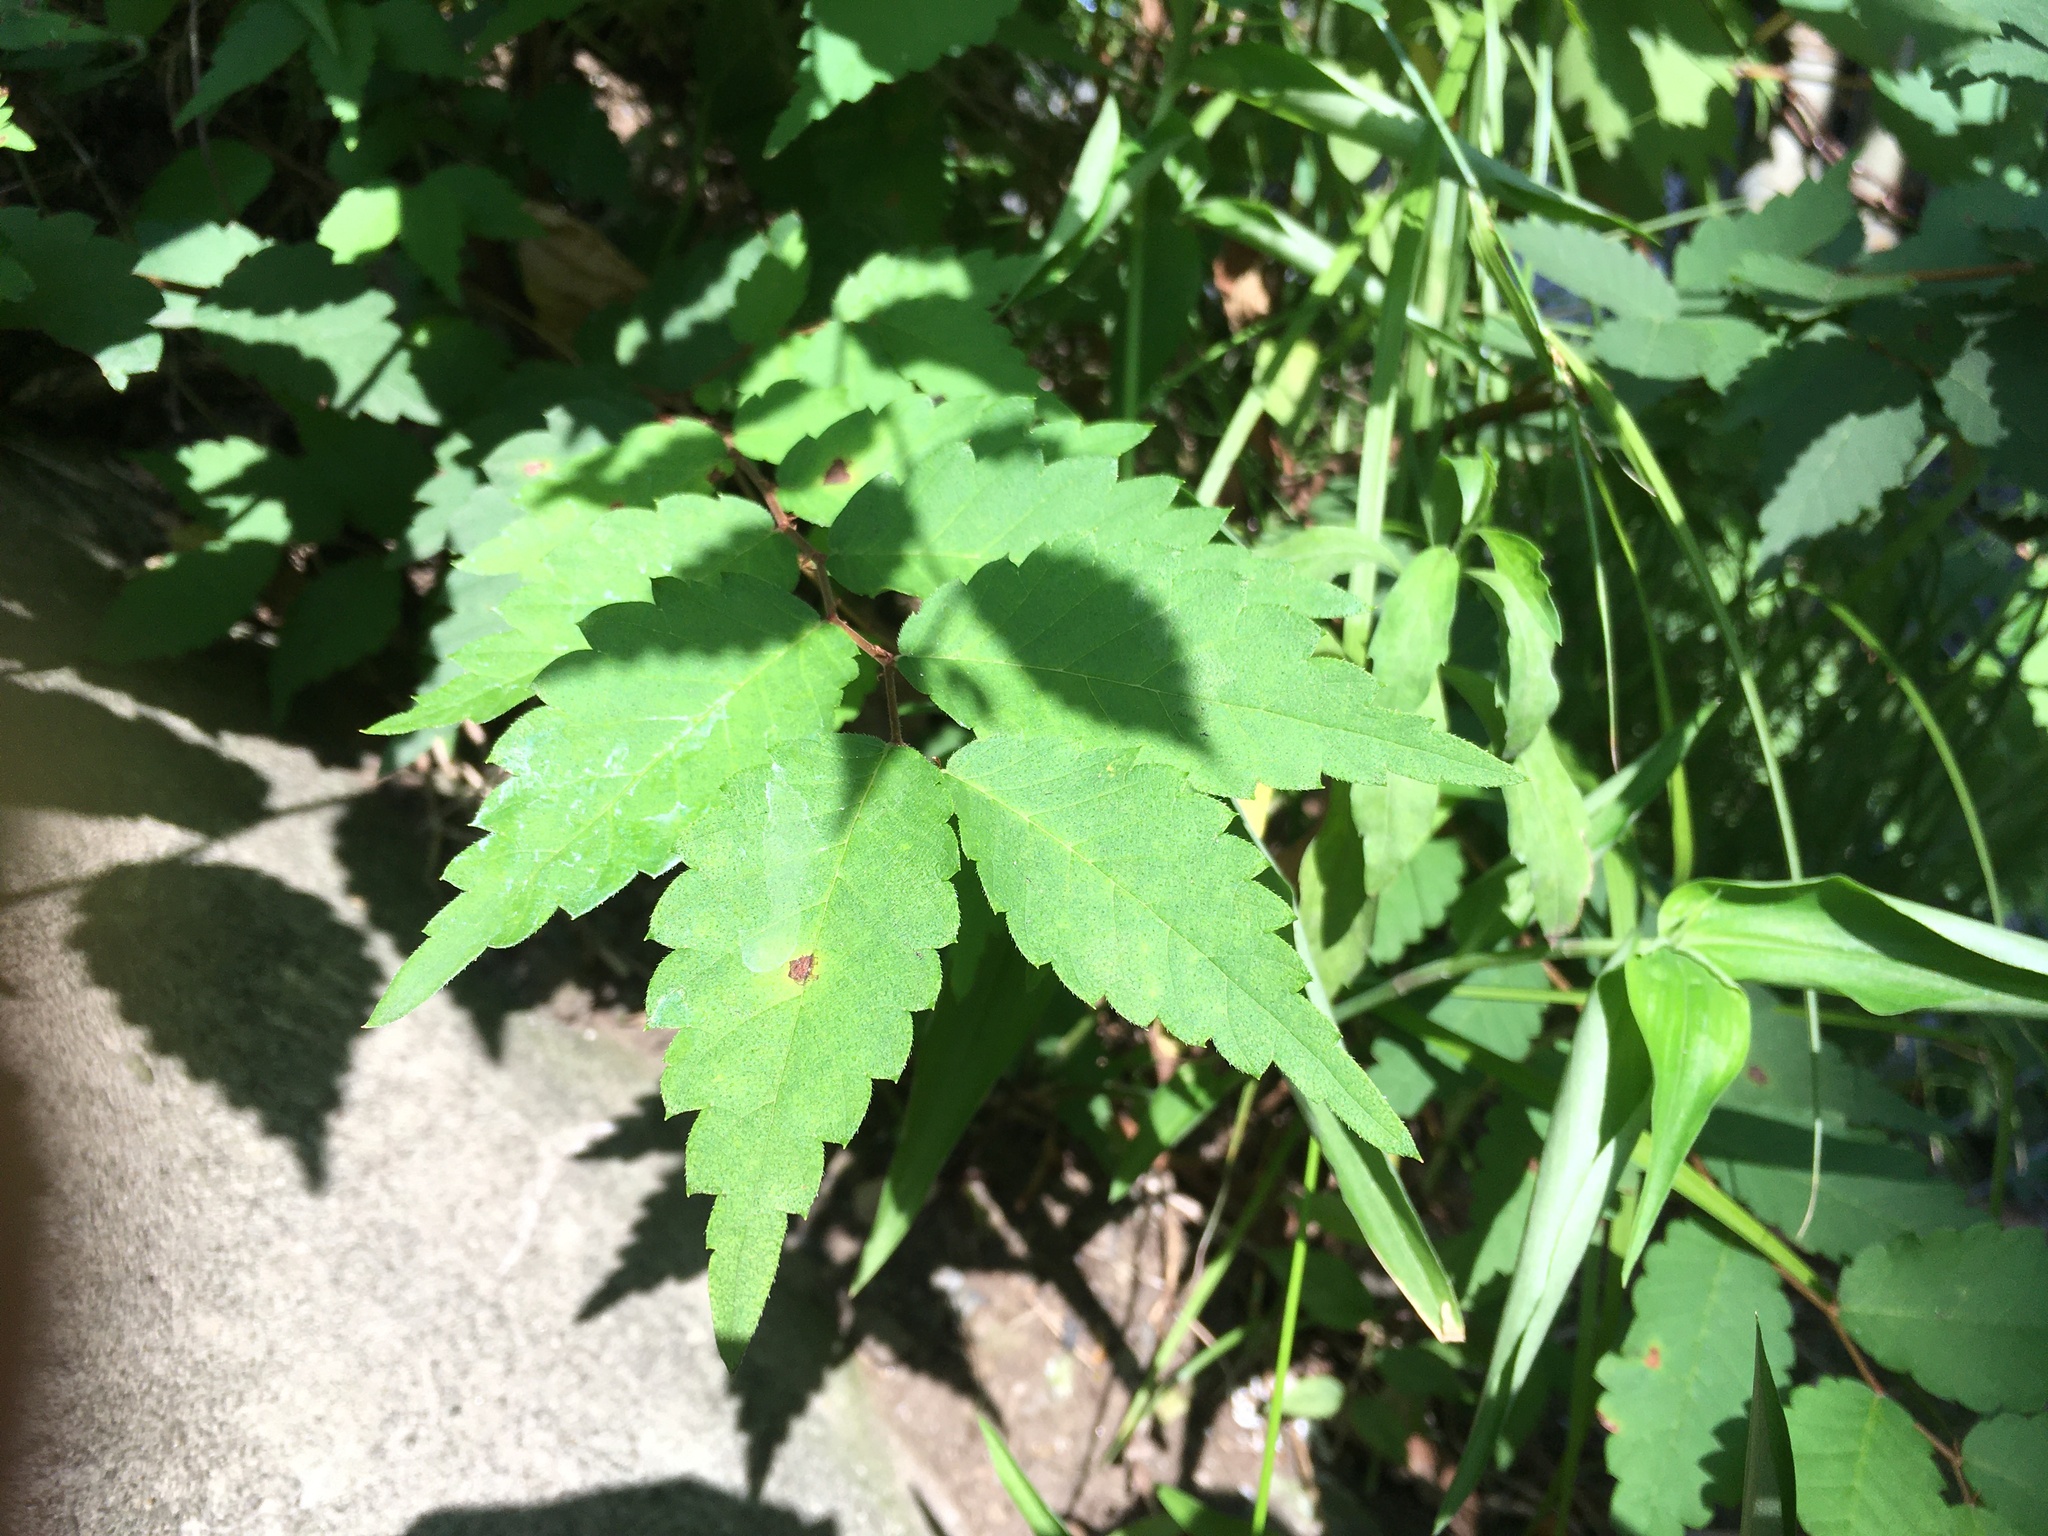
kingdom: Plantae
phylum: Tracheophyta
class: Magnoliopsida
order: Rosales
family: Ulmaceae
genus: Zelkova
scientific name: Zelkova serrata
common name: Japanese zelkova
